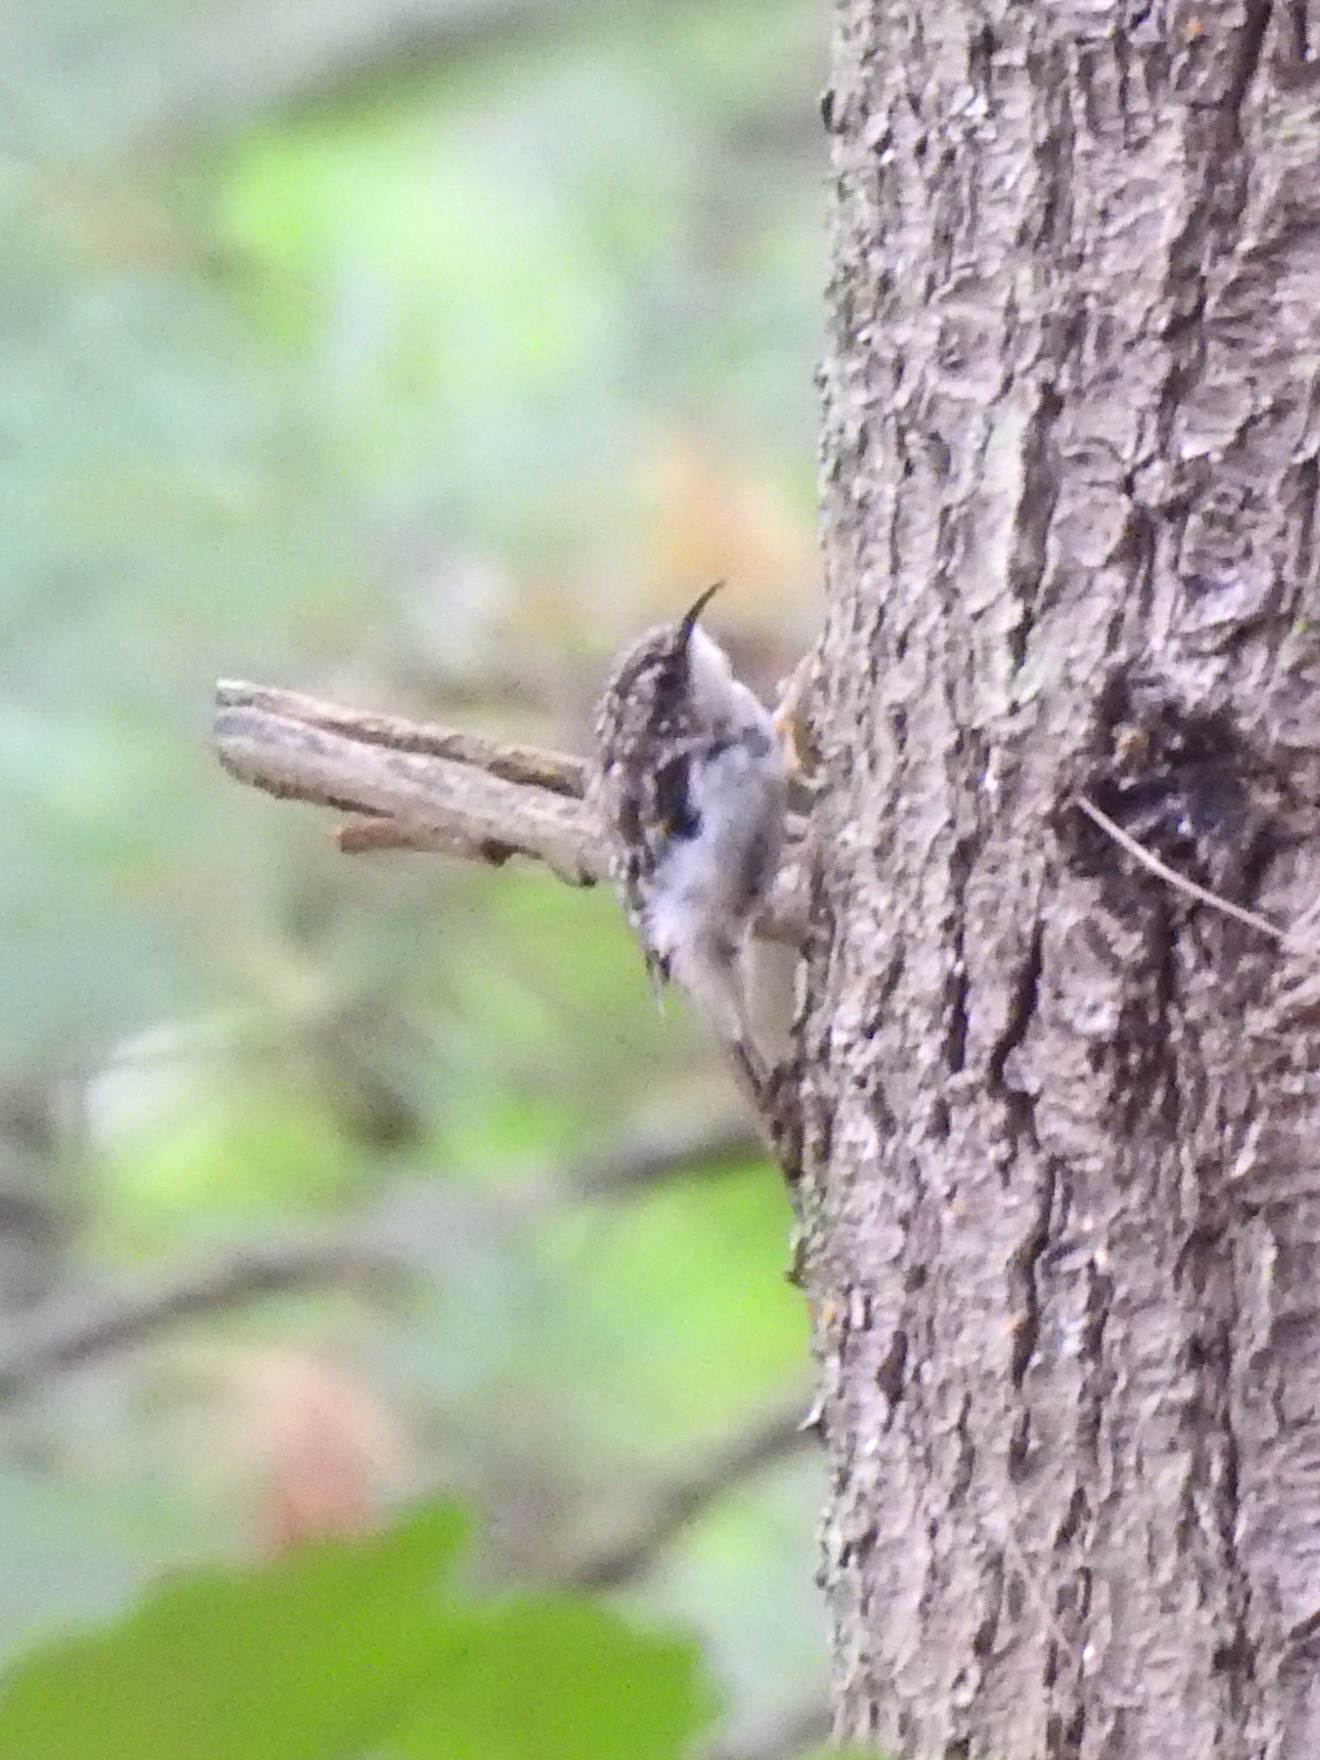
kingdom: Animalia
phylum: Chordata
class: Aves
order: Passeriformes
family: Certhiidae
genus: Certhia
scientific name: Certhia americana
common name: Brown creeper
